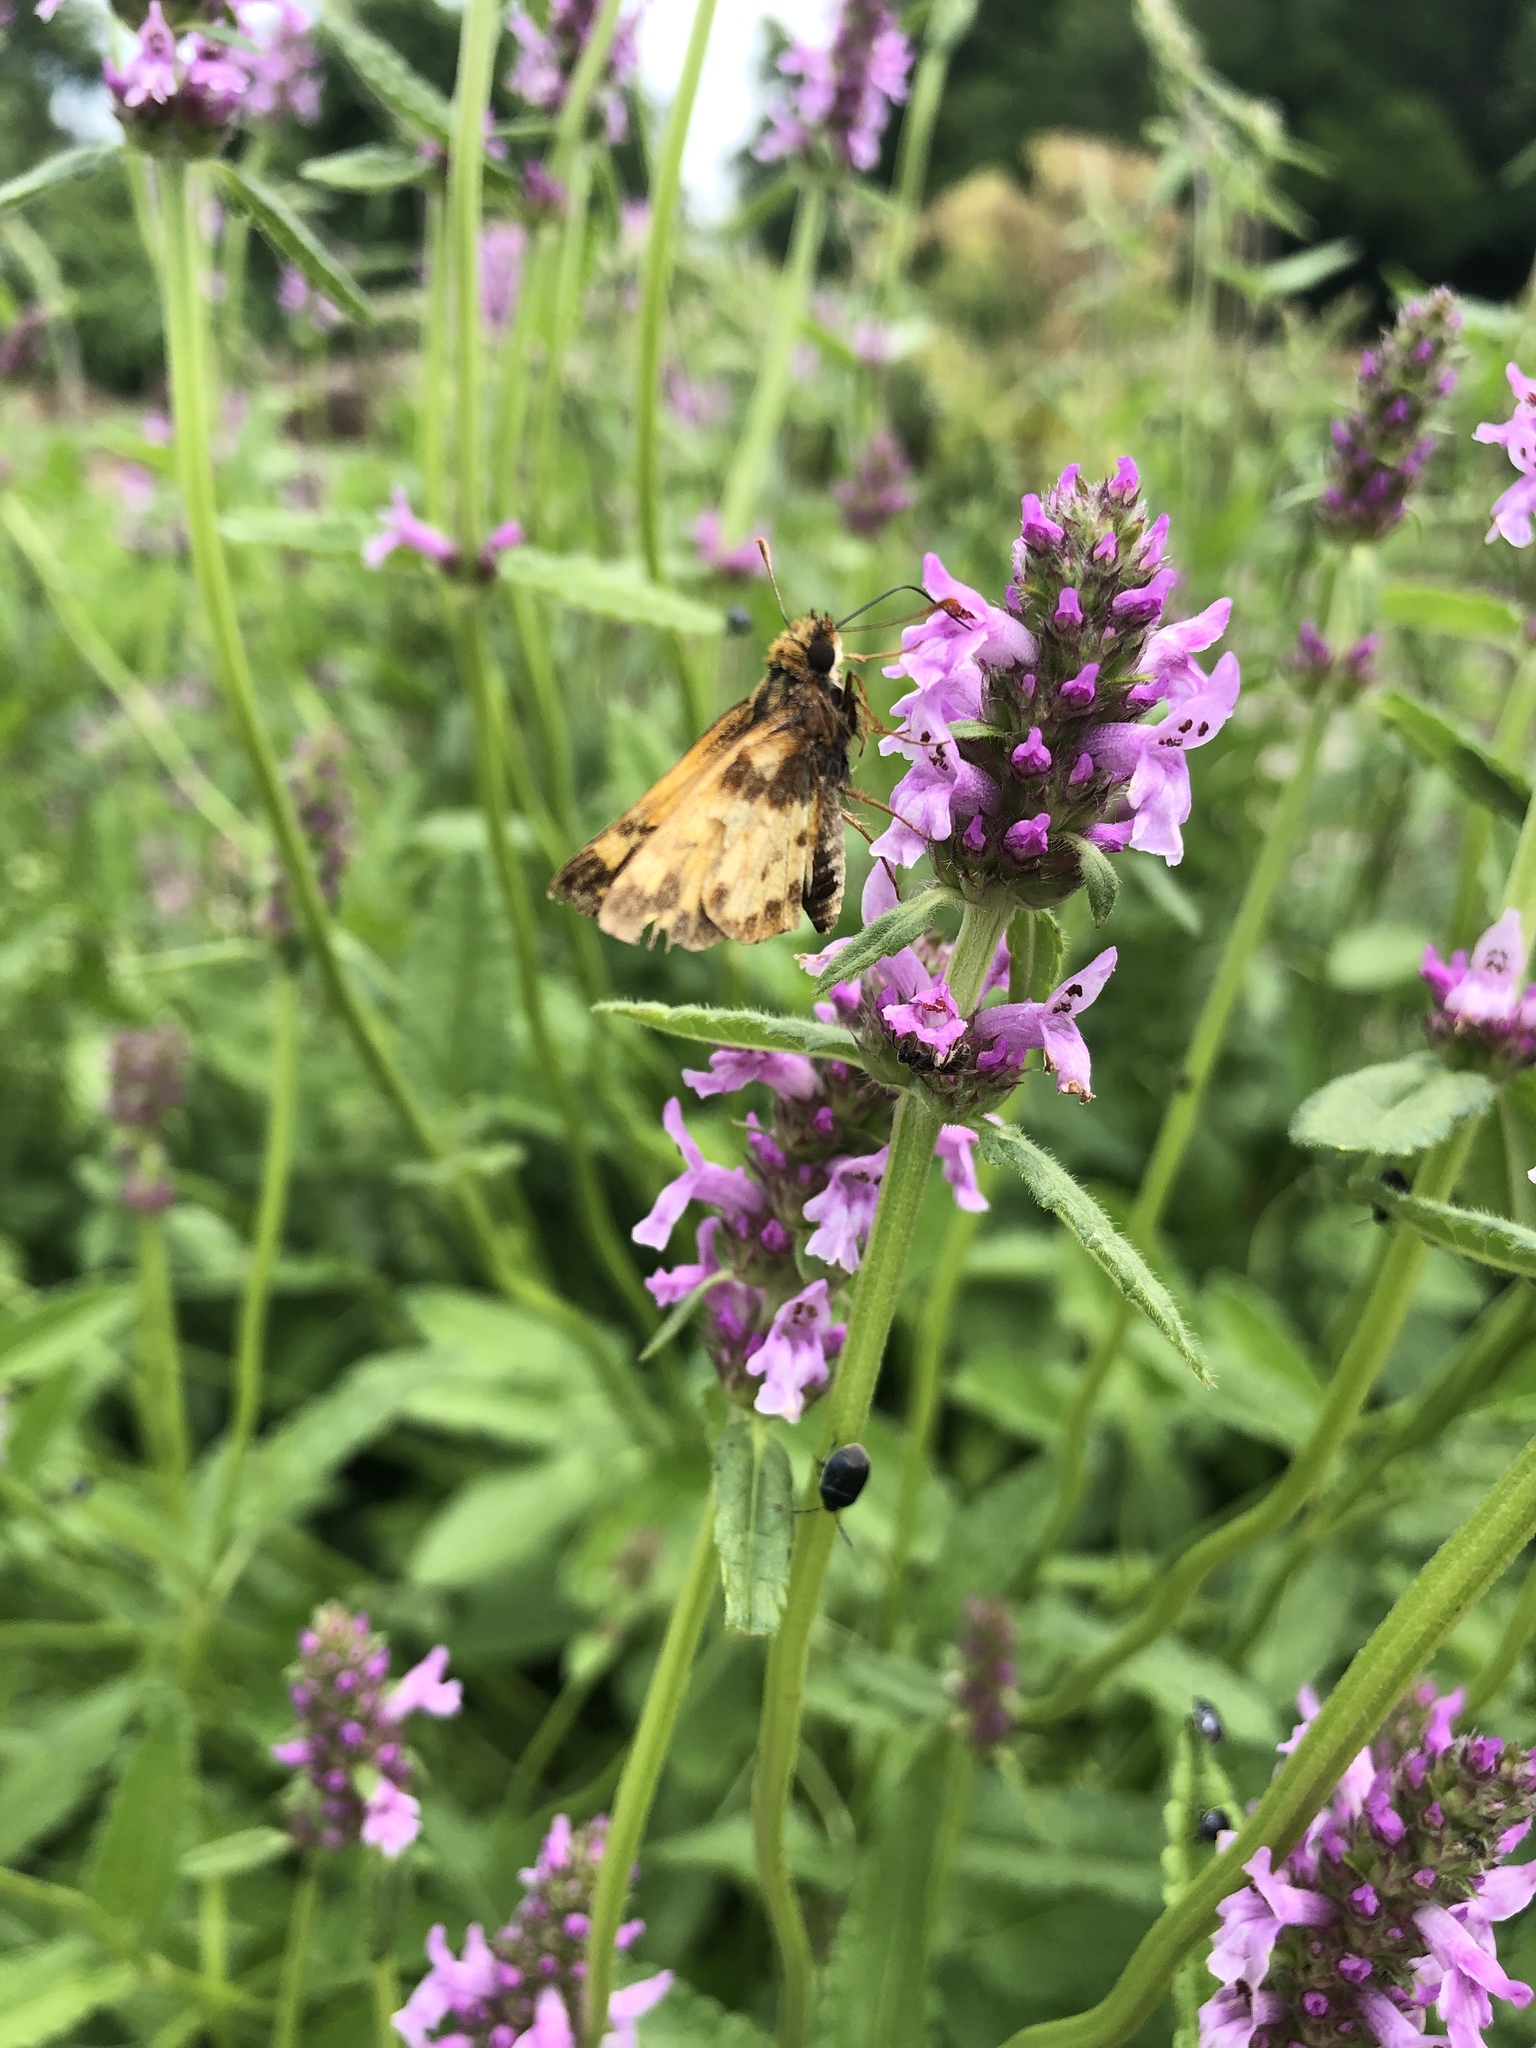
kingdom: Animalia
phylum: Arthropoda
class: Insecta
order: Lepidoptera
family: Hesperiidae
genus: Lon
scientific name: Lon zabulon
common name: Zabulon skipper
